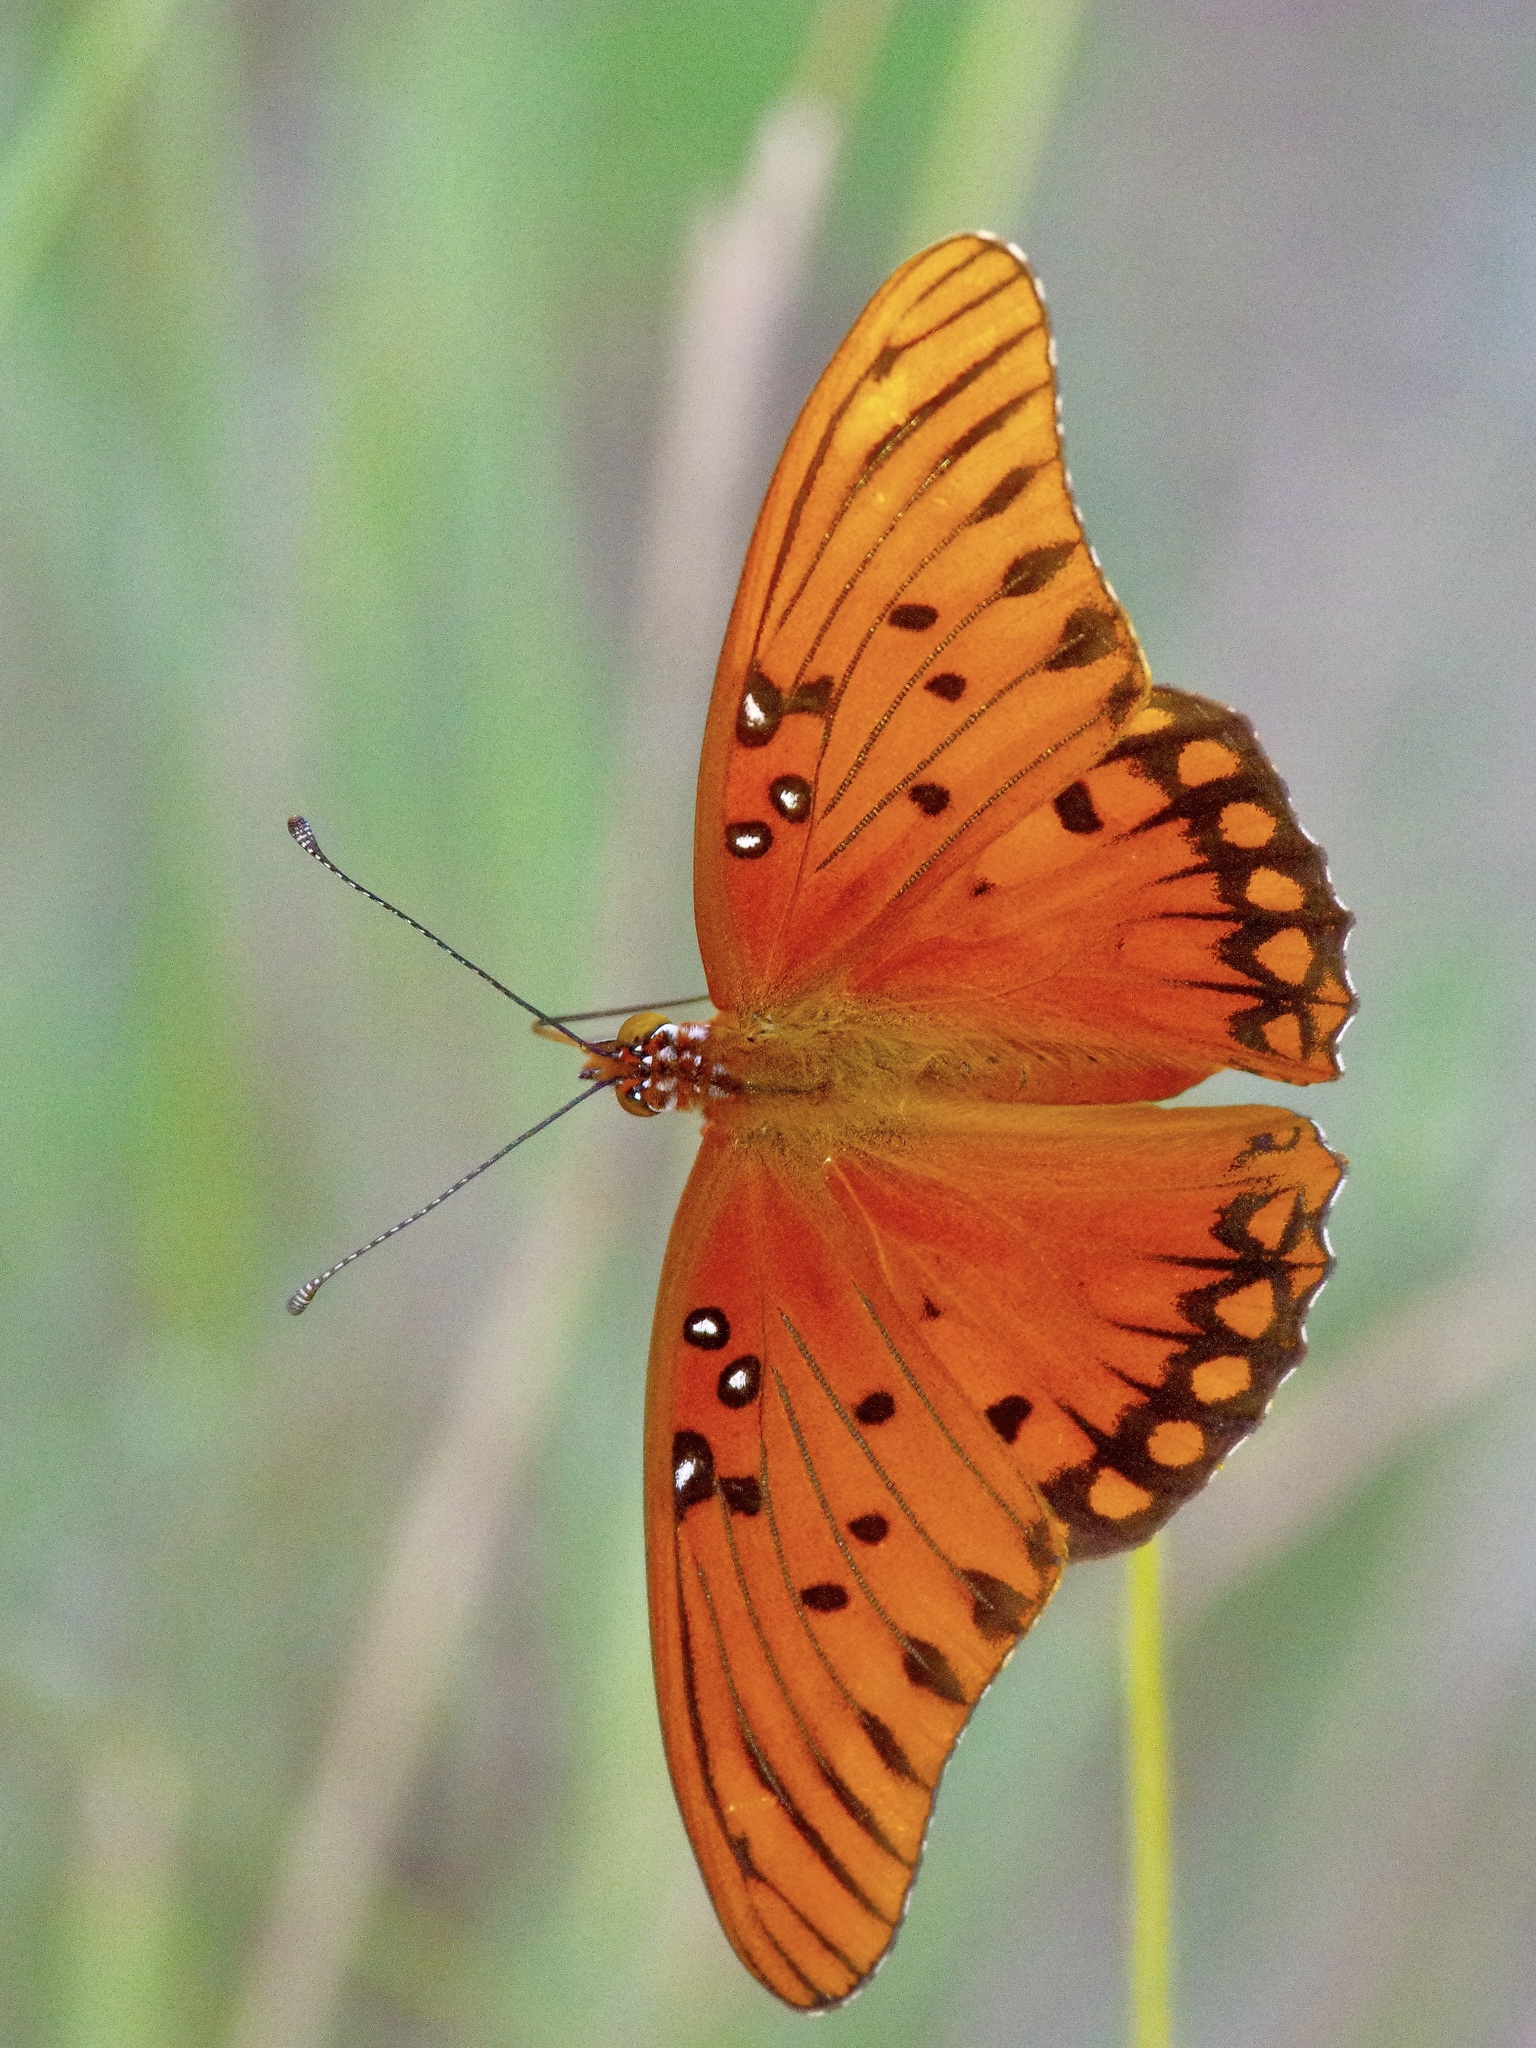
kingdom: Animalia
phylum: Arthropoda
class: Insecta
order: Lepidoptera
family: Nymphalidae
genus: Dione
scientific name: Dione vanillae
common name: Gulf fritillary
